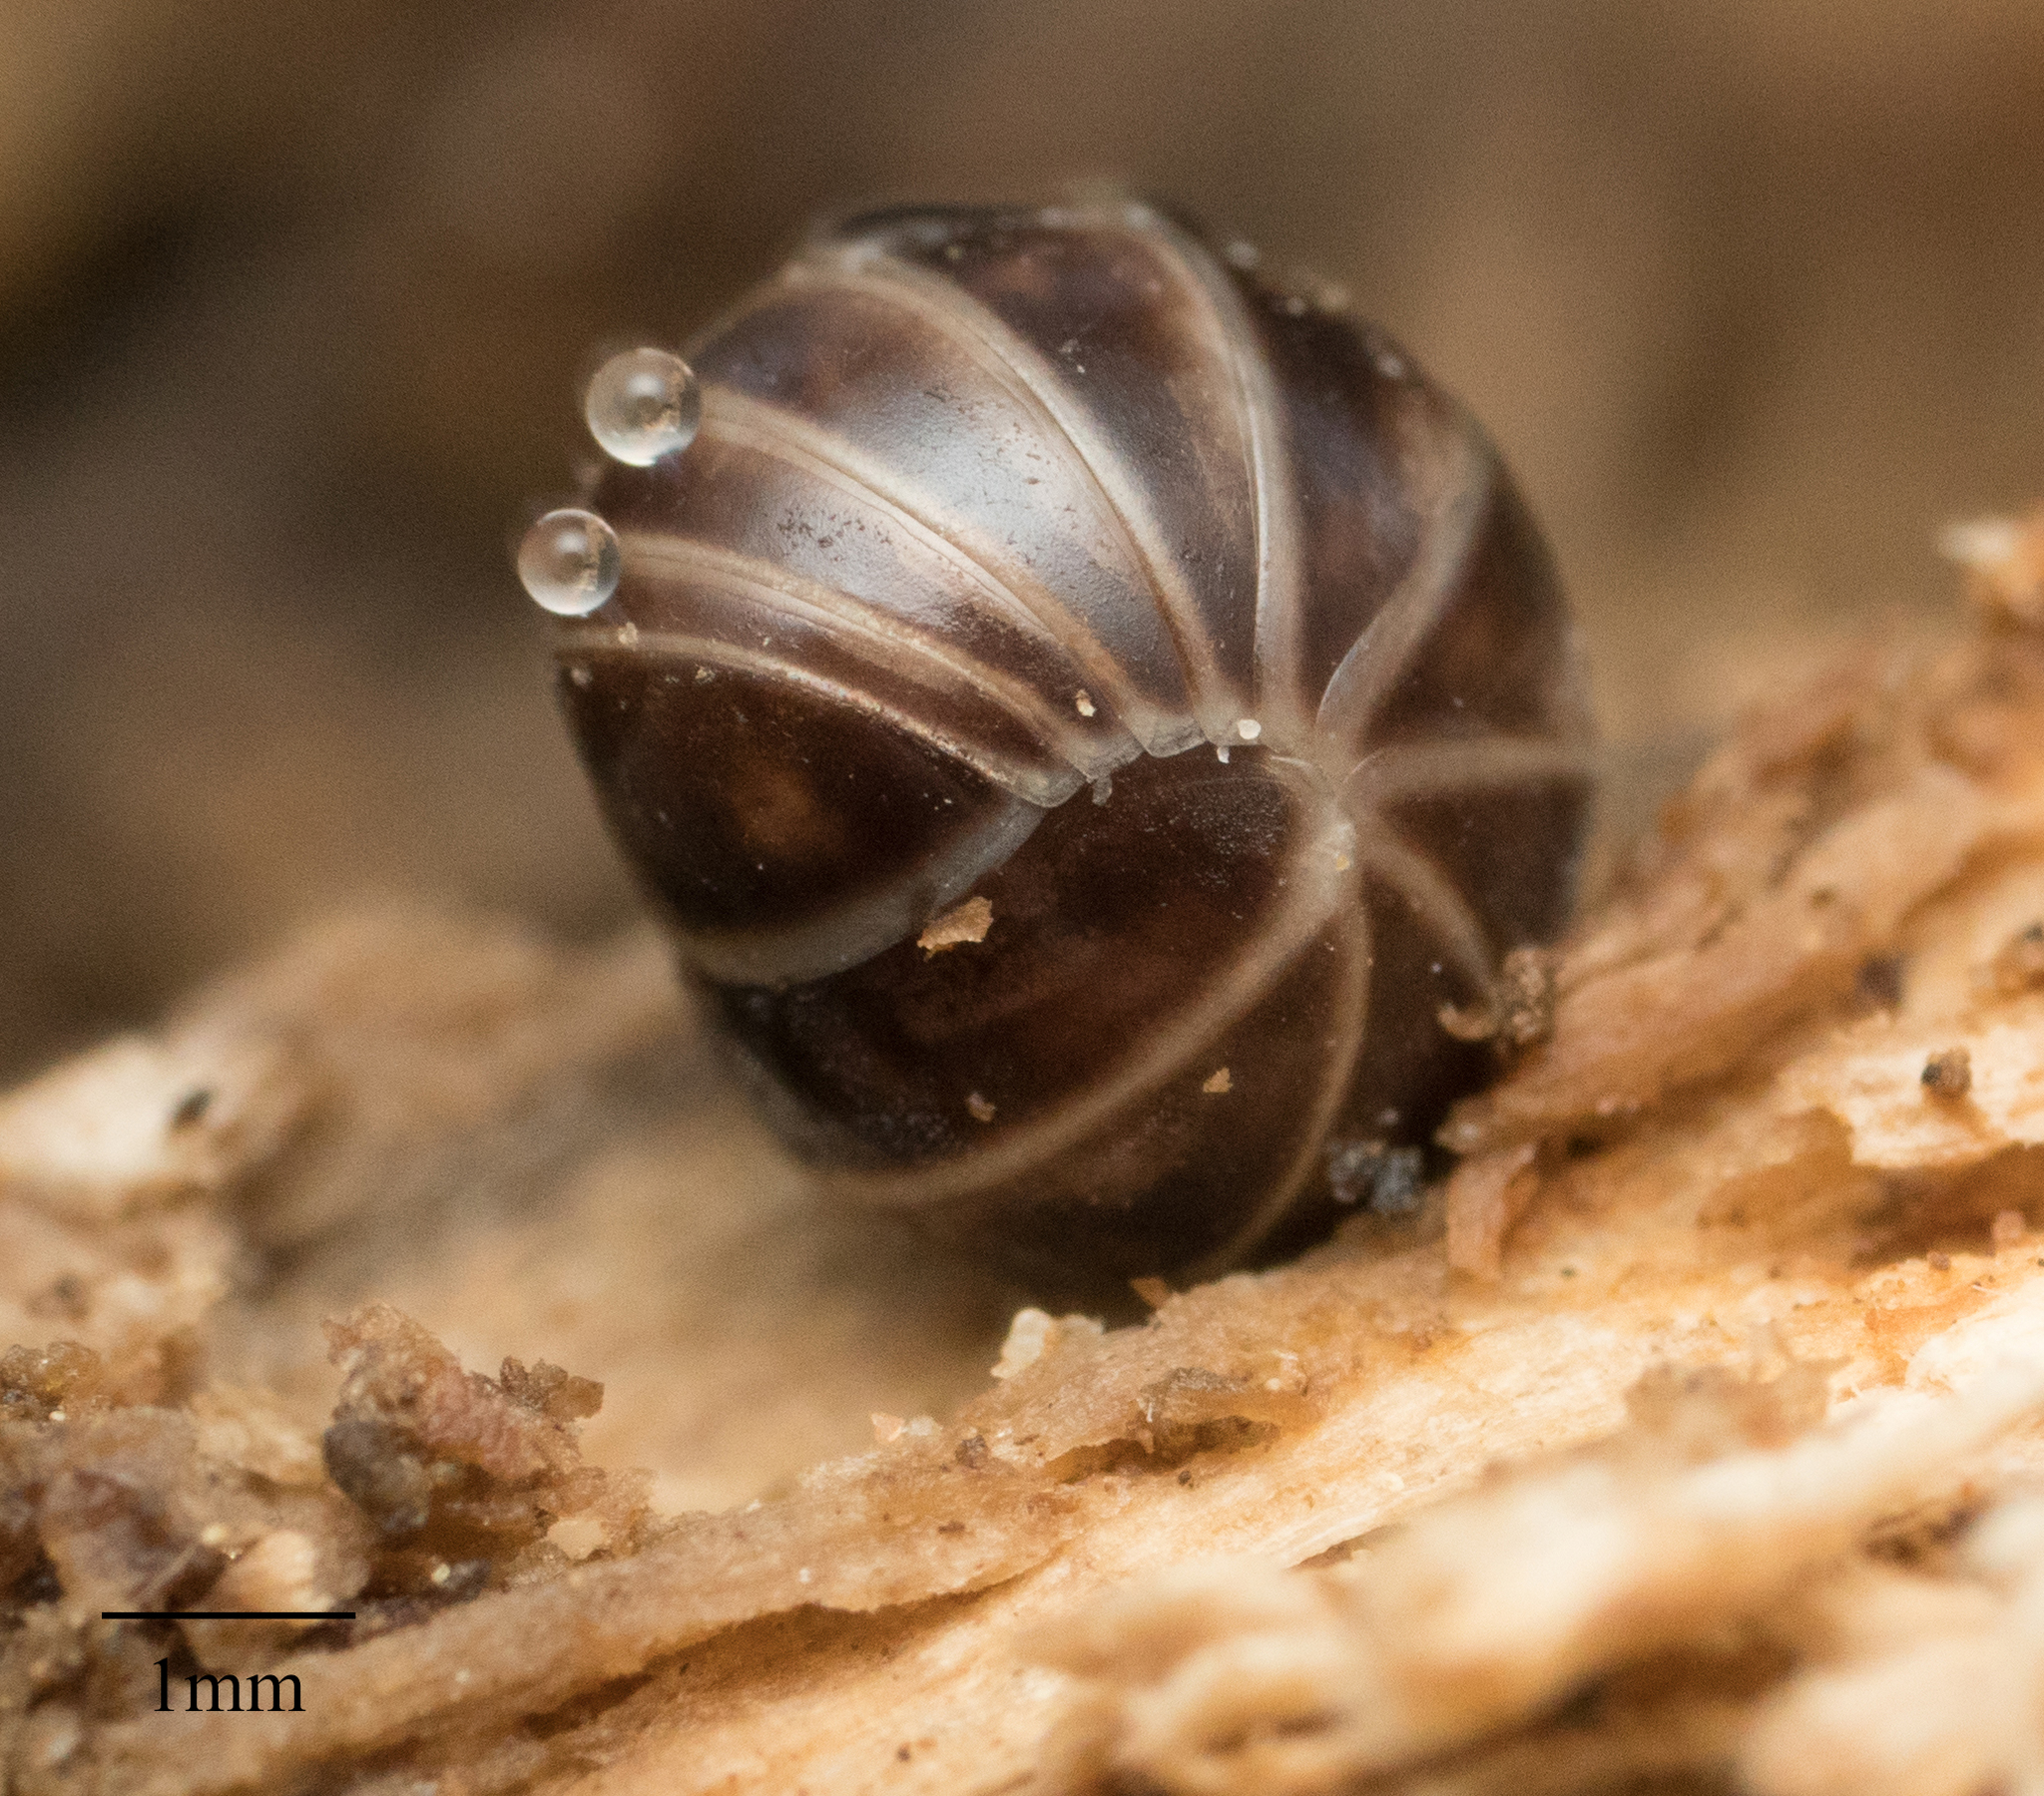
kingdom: Animalia
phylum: Arthropoda
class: Diplopoda
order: Glomerida
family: Glomeridae
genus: Glomeris
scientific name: Glomeris marginata
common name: Bordered pill millipede
